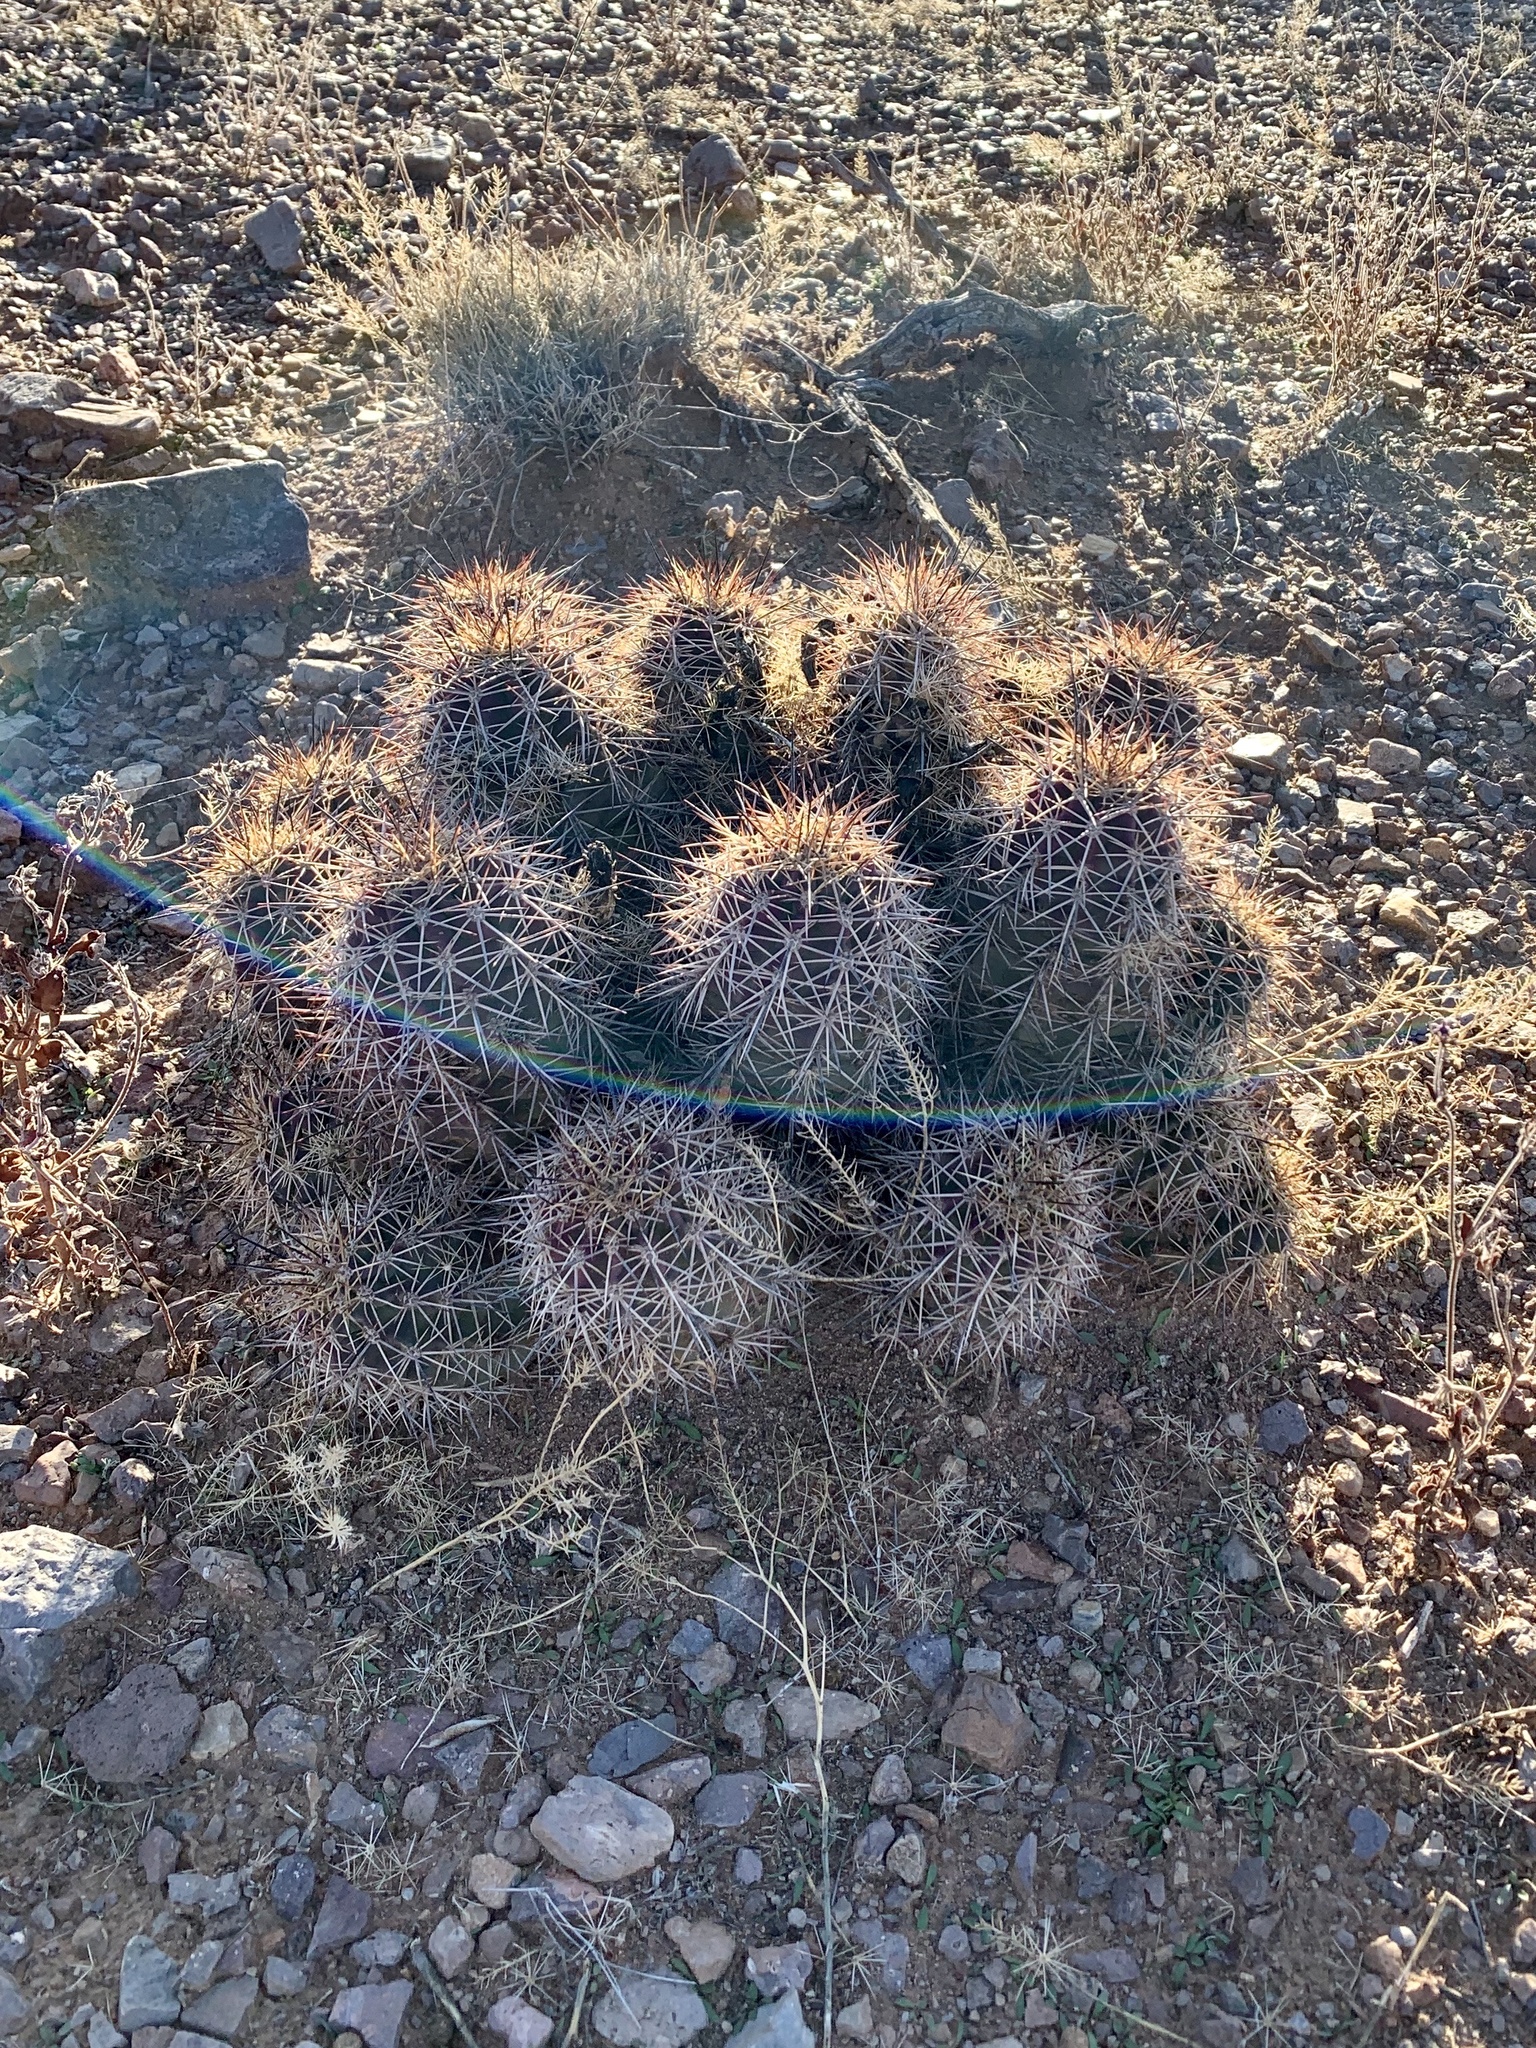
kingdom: Plantae
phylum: Tracheophyta
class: Magnoliopsida
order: Caryophyllales
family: Cactaceae
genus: Echinocereus
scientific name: Echinocereus coccineus
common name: Scarlet hedgehog cactus
